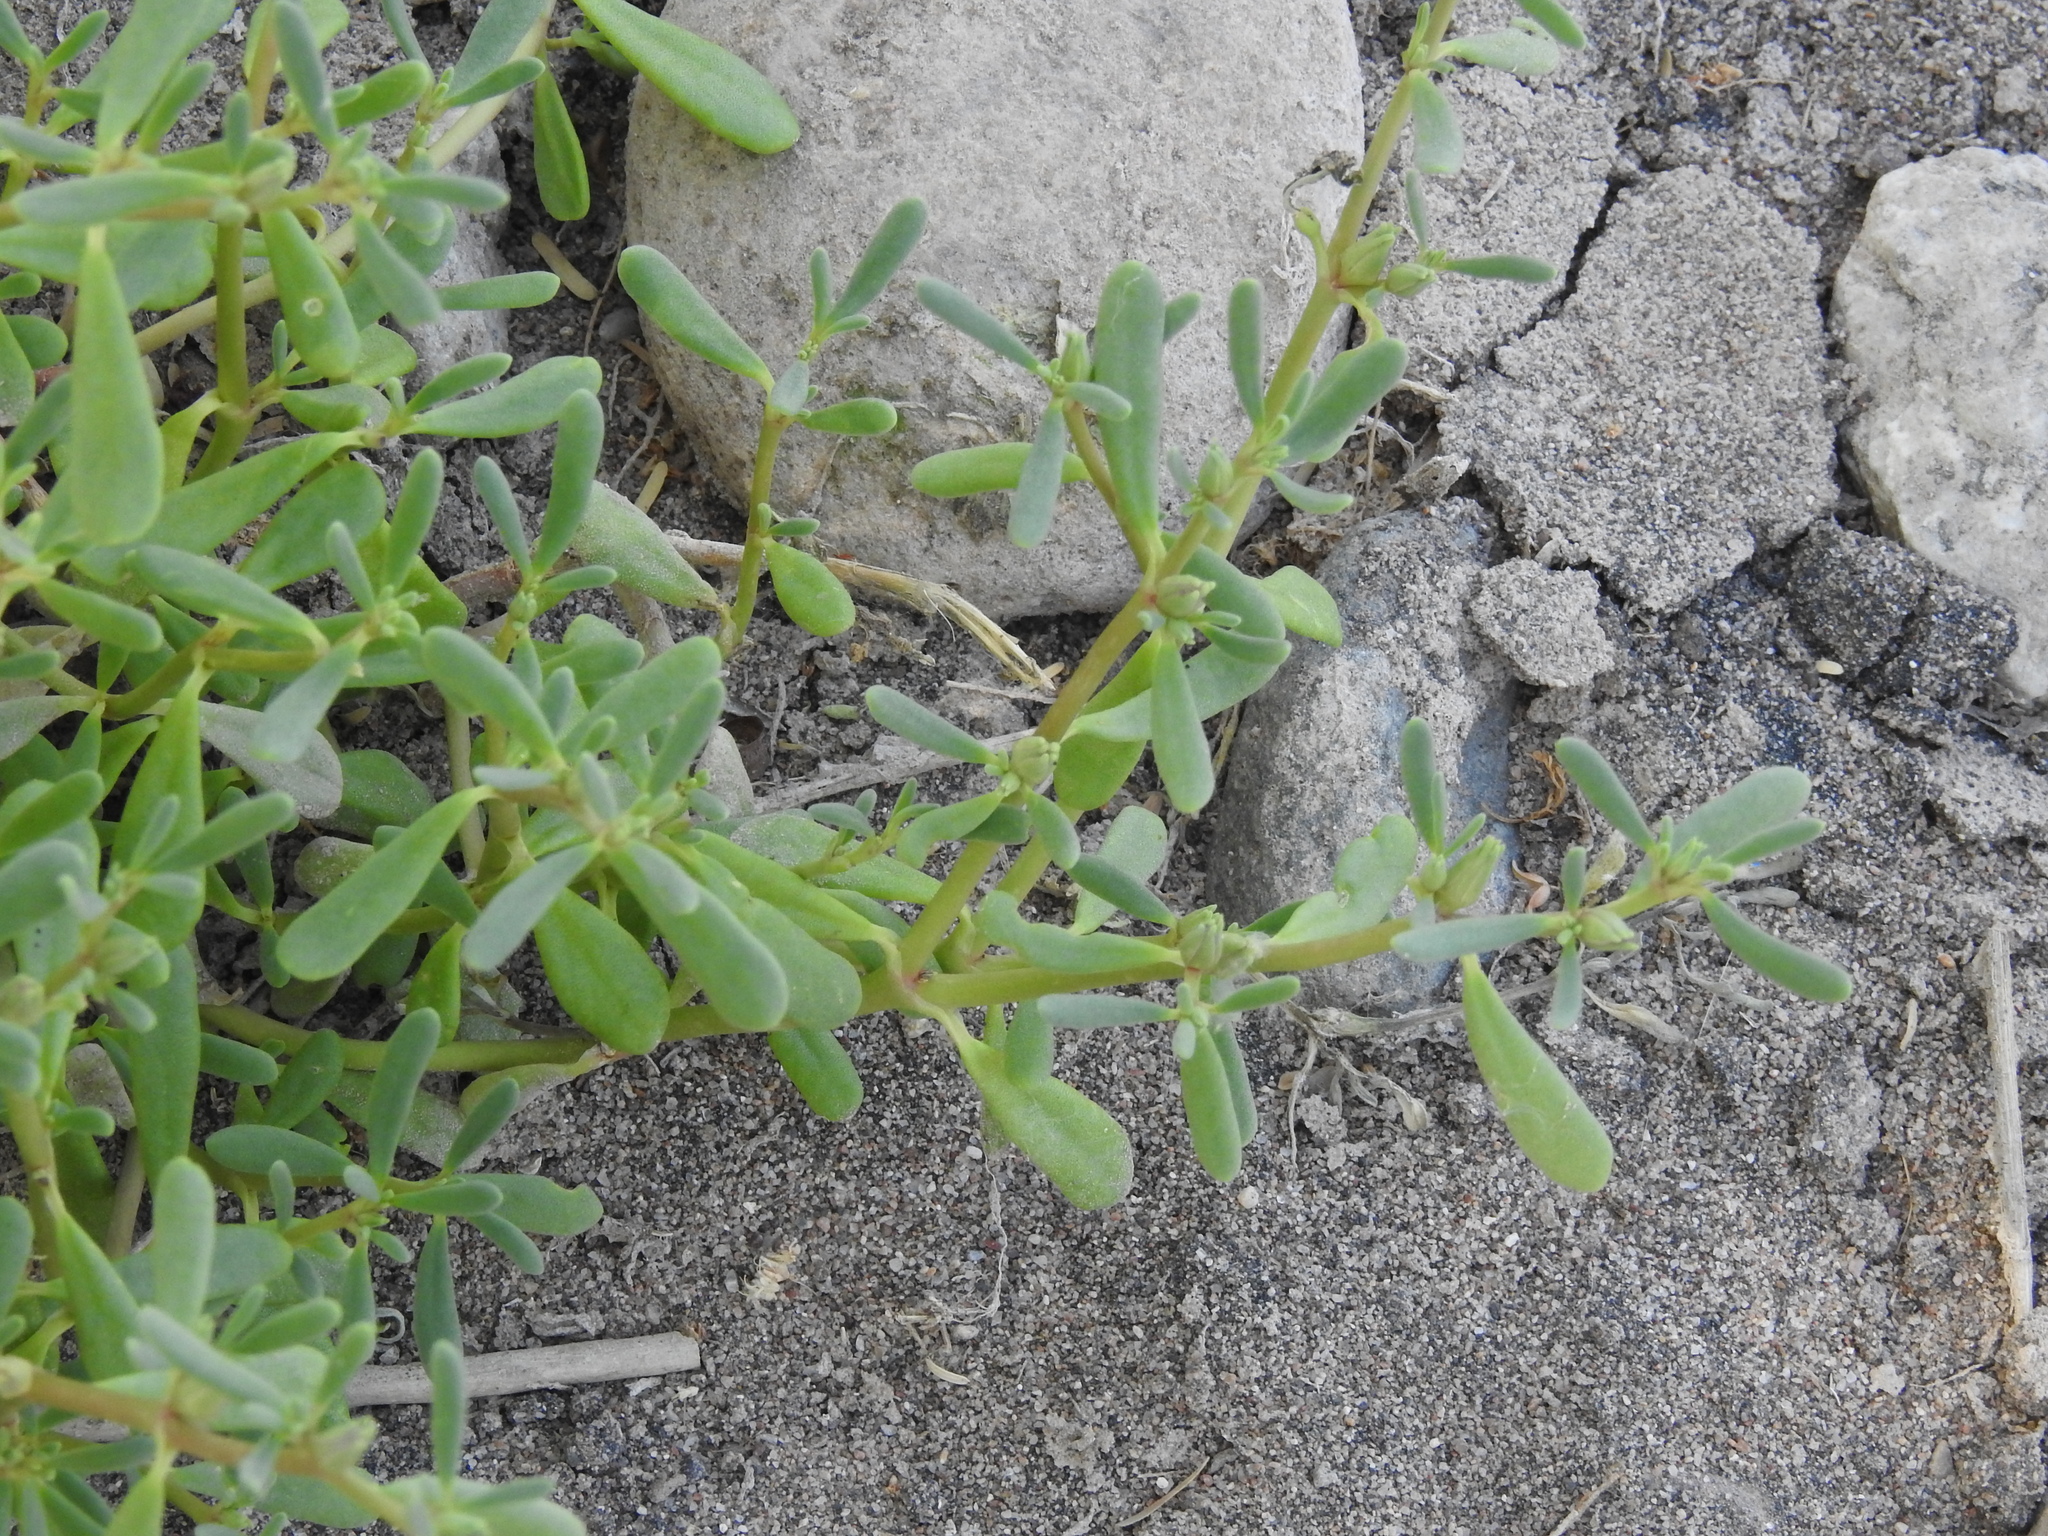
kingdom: Plantae
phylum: Tracheophyta
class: Magnoliopsida
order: Caryophyllales
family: Aizoaceae
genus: Sesuvium
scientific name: Sesuvium revolutifolium
